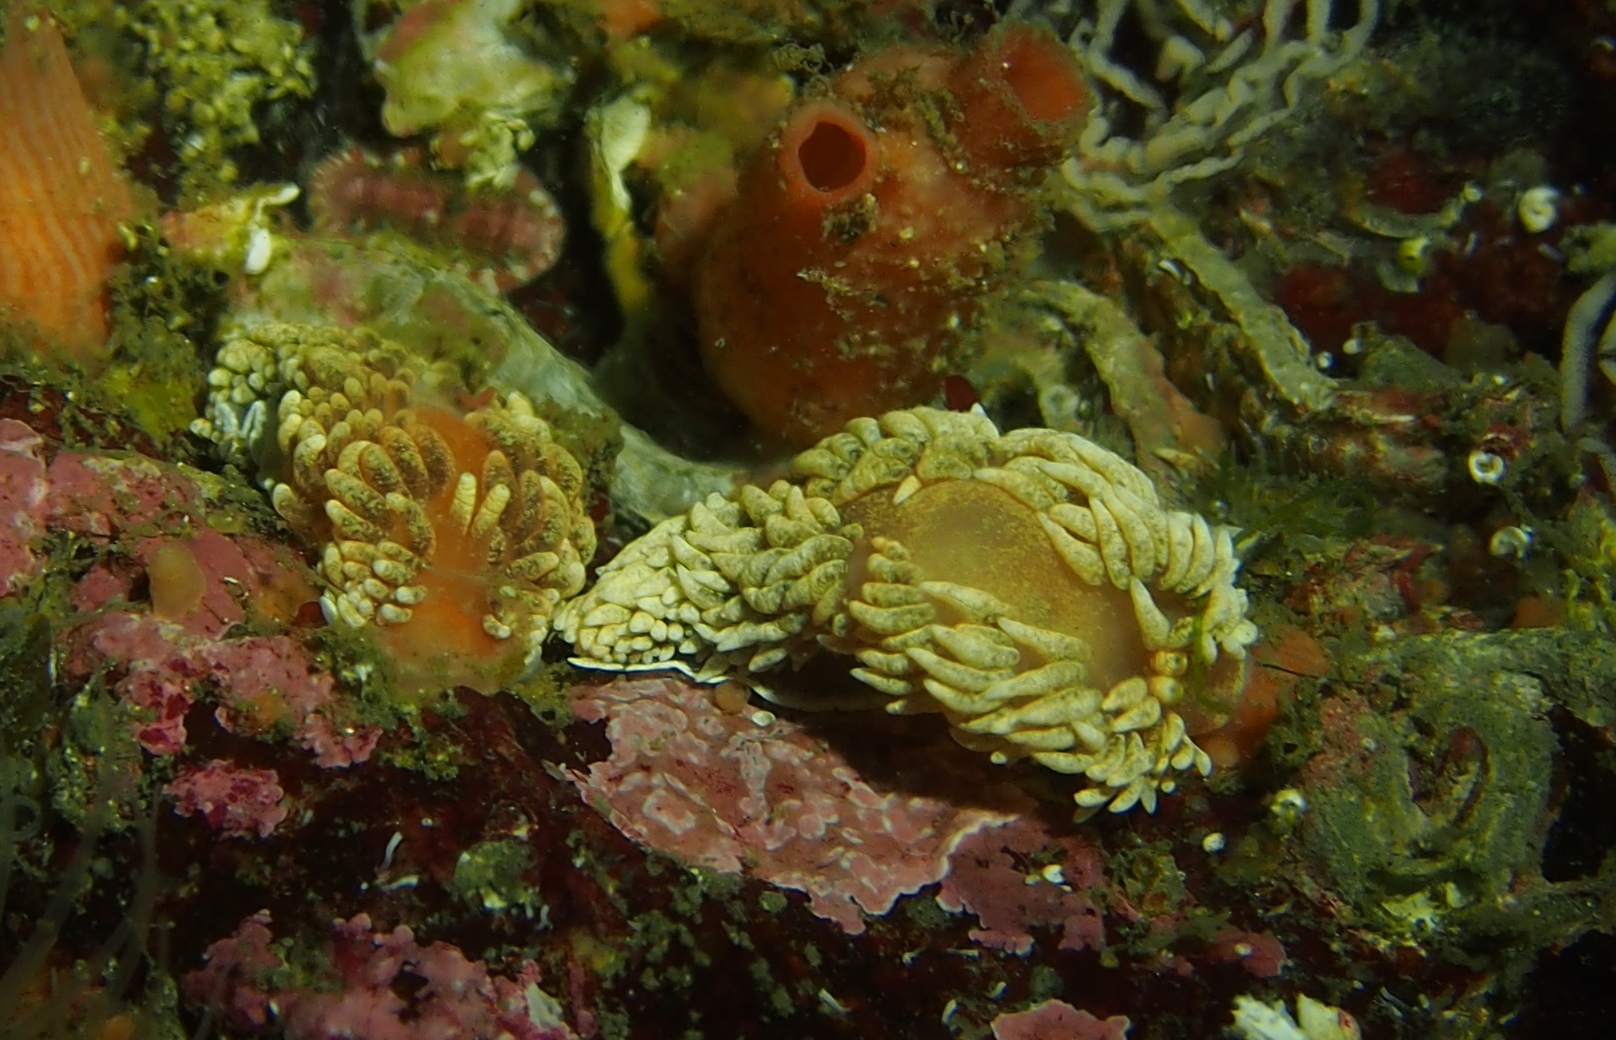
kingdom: Animalia
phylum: Mollusca
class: Gastropoda
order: Nudibranchia
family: Aeolidiidae
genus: Aeolidiella
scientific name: Aeolidiella glauca
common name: Orange-brown aeolid
